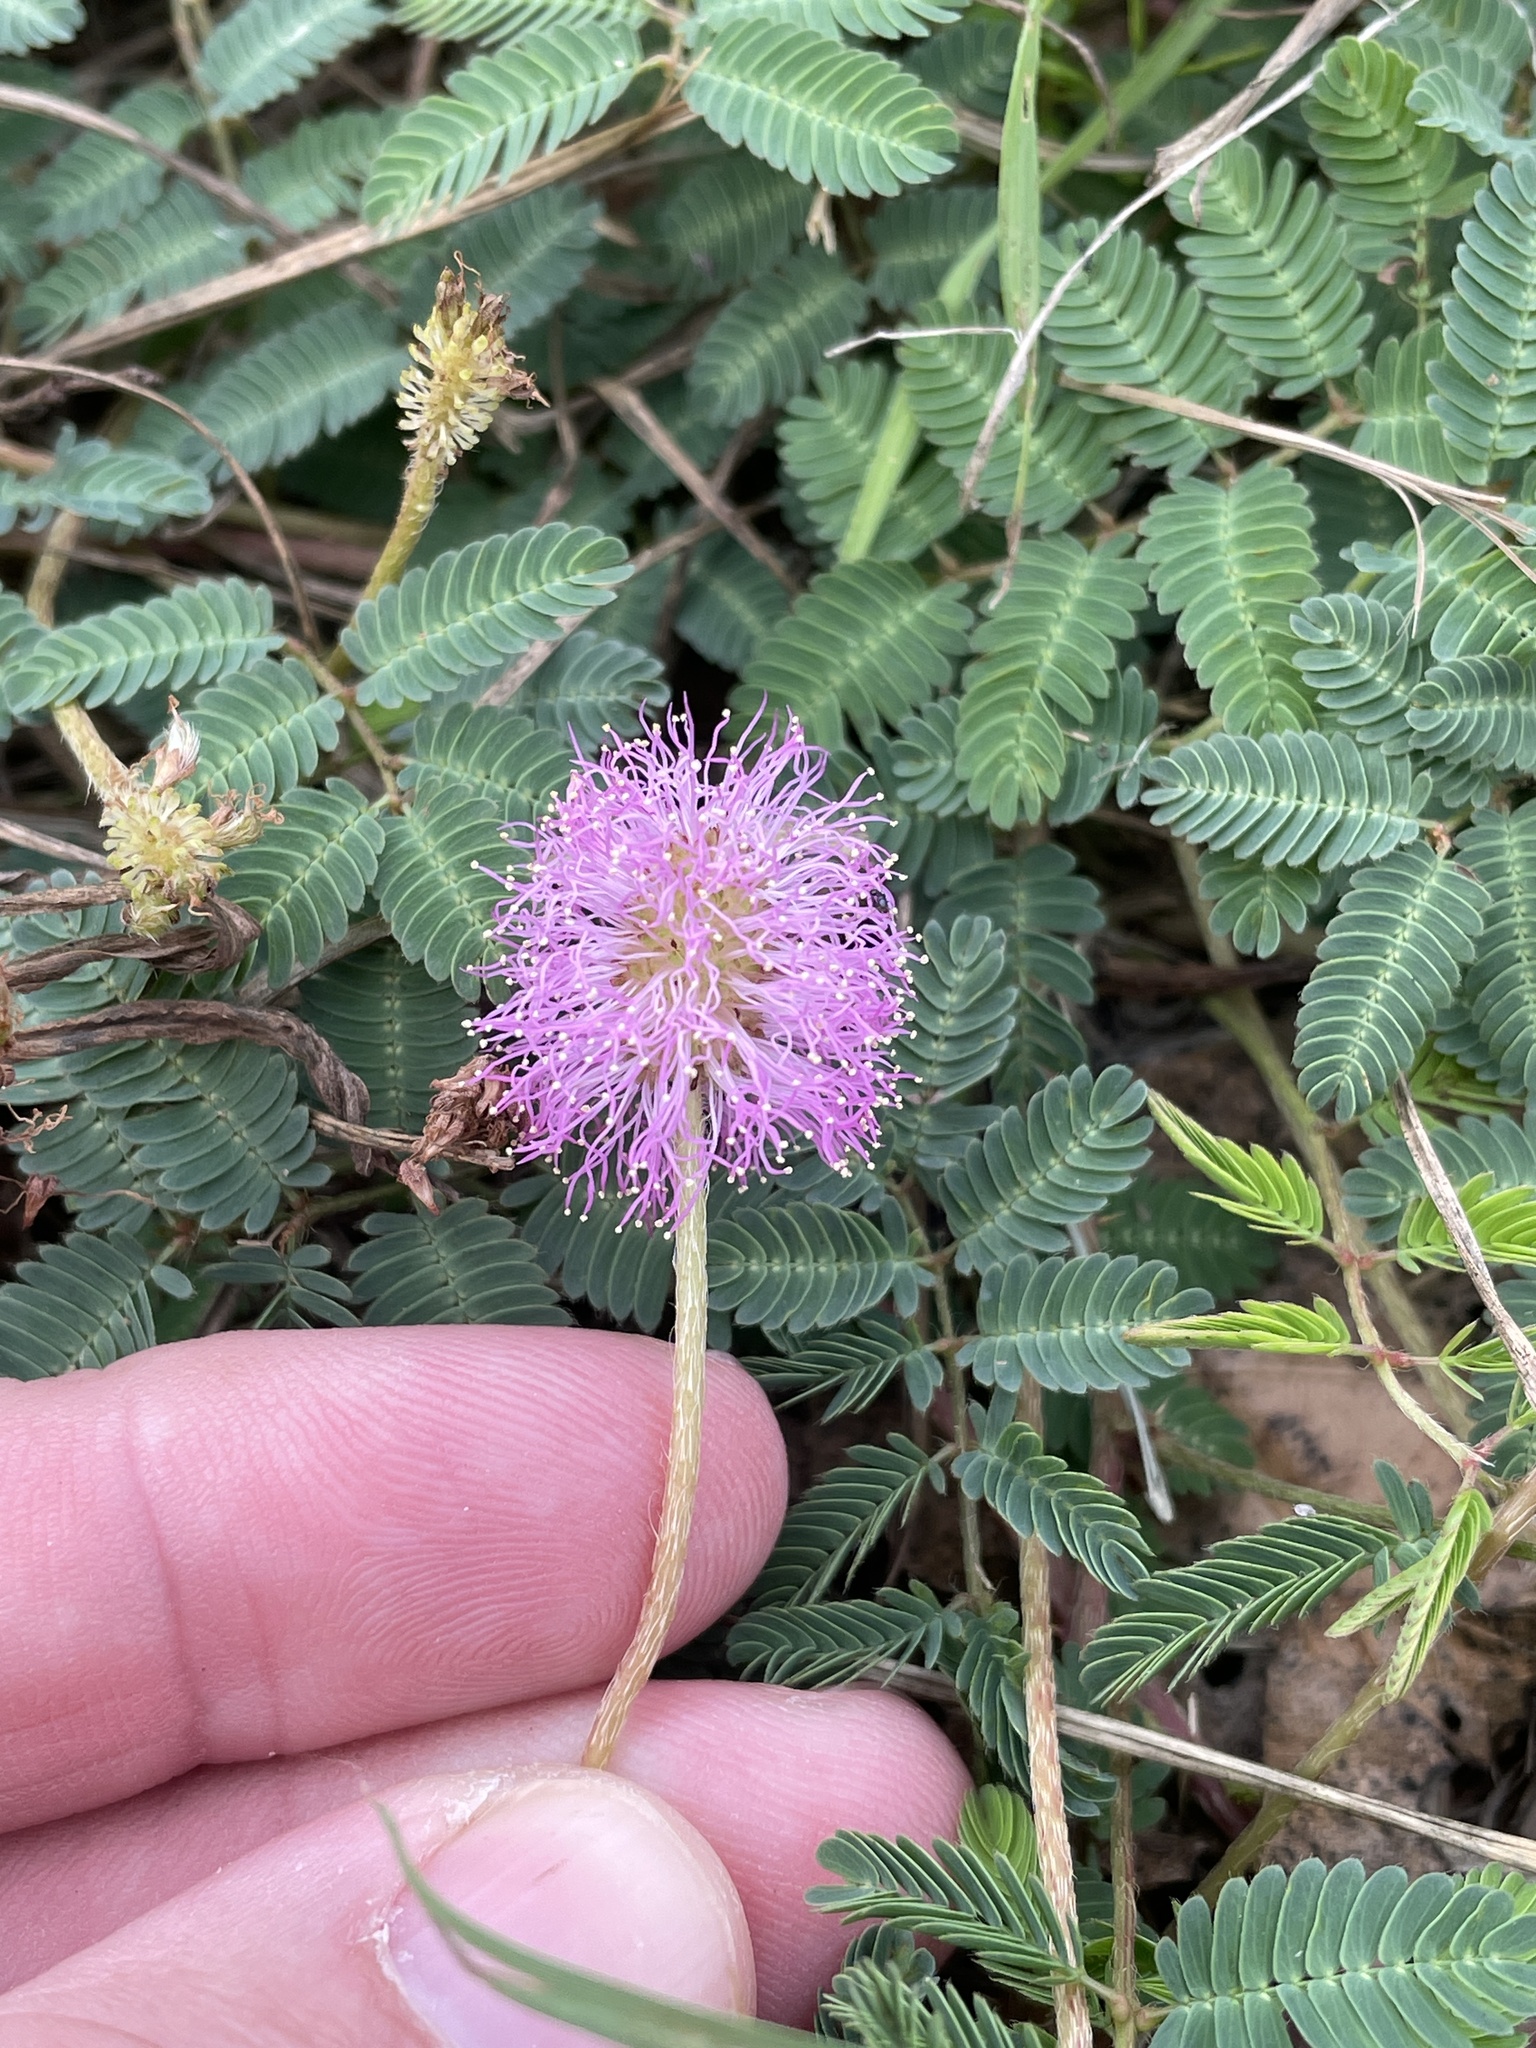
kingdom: Plantae
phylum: Tracheophyta
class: Magnoliopsida
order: Fabales
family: Fabaceae
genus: Mimosa
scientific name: Mimosa strigillosa
